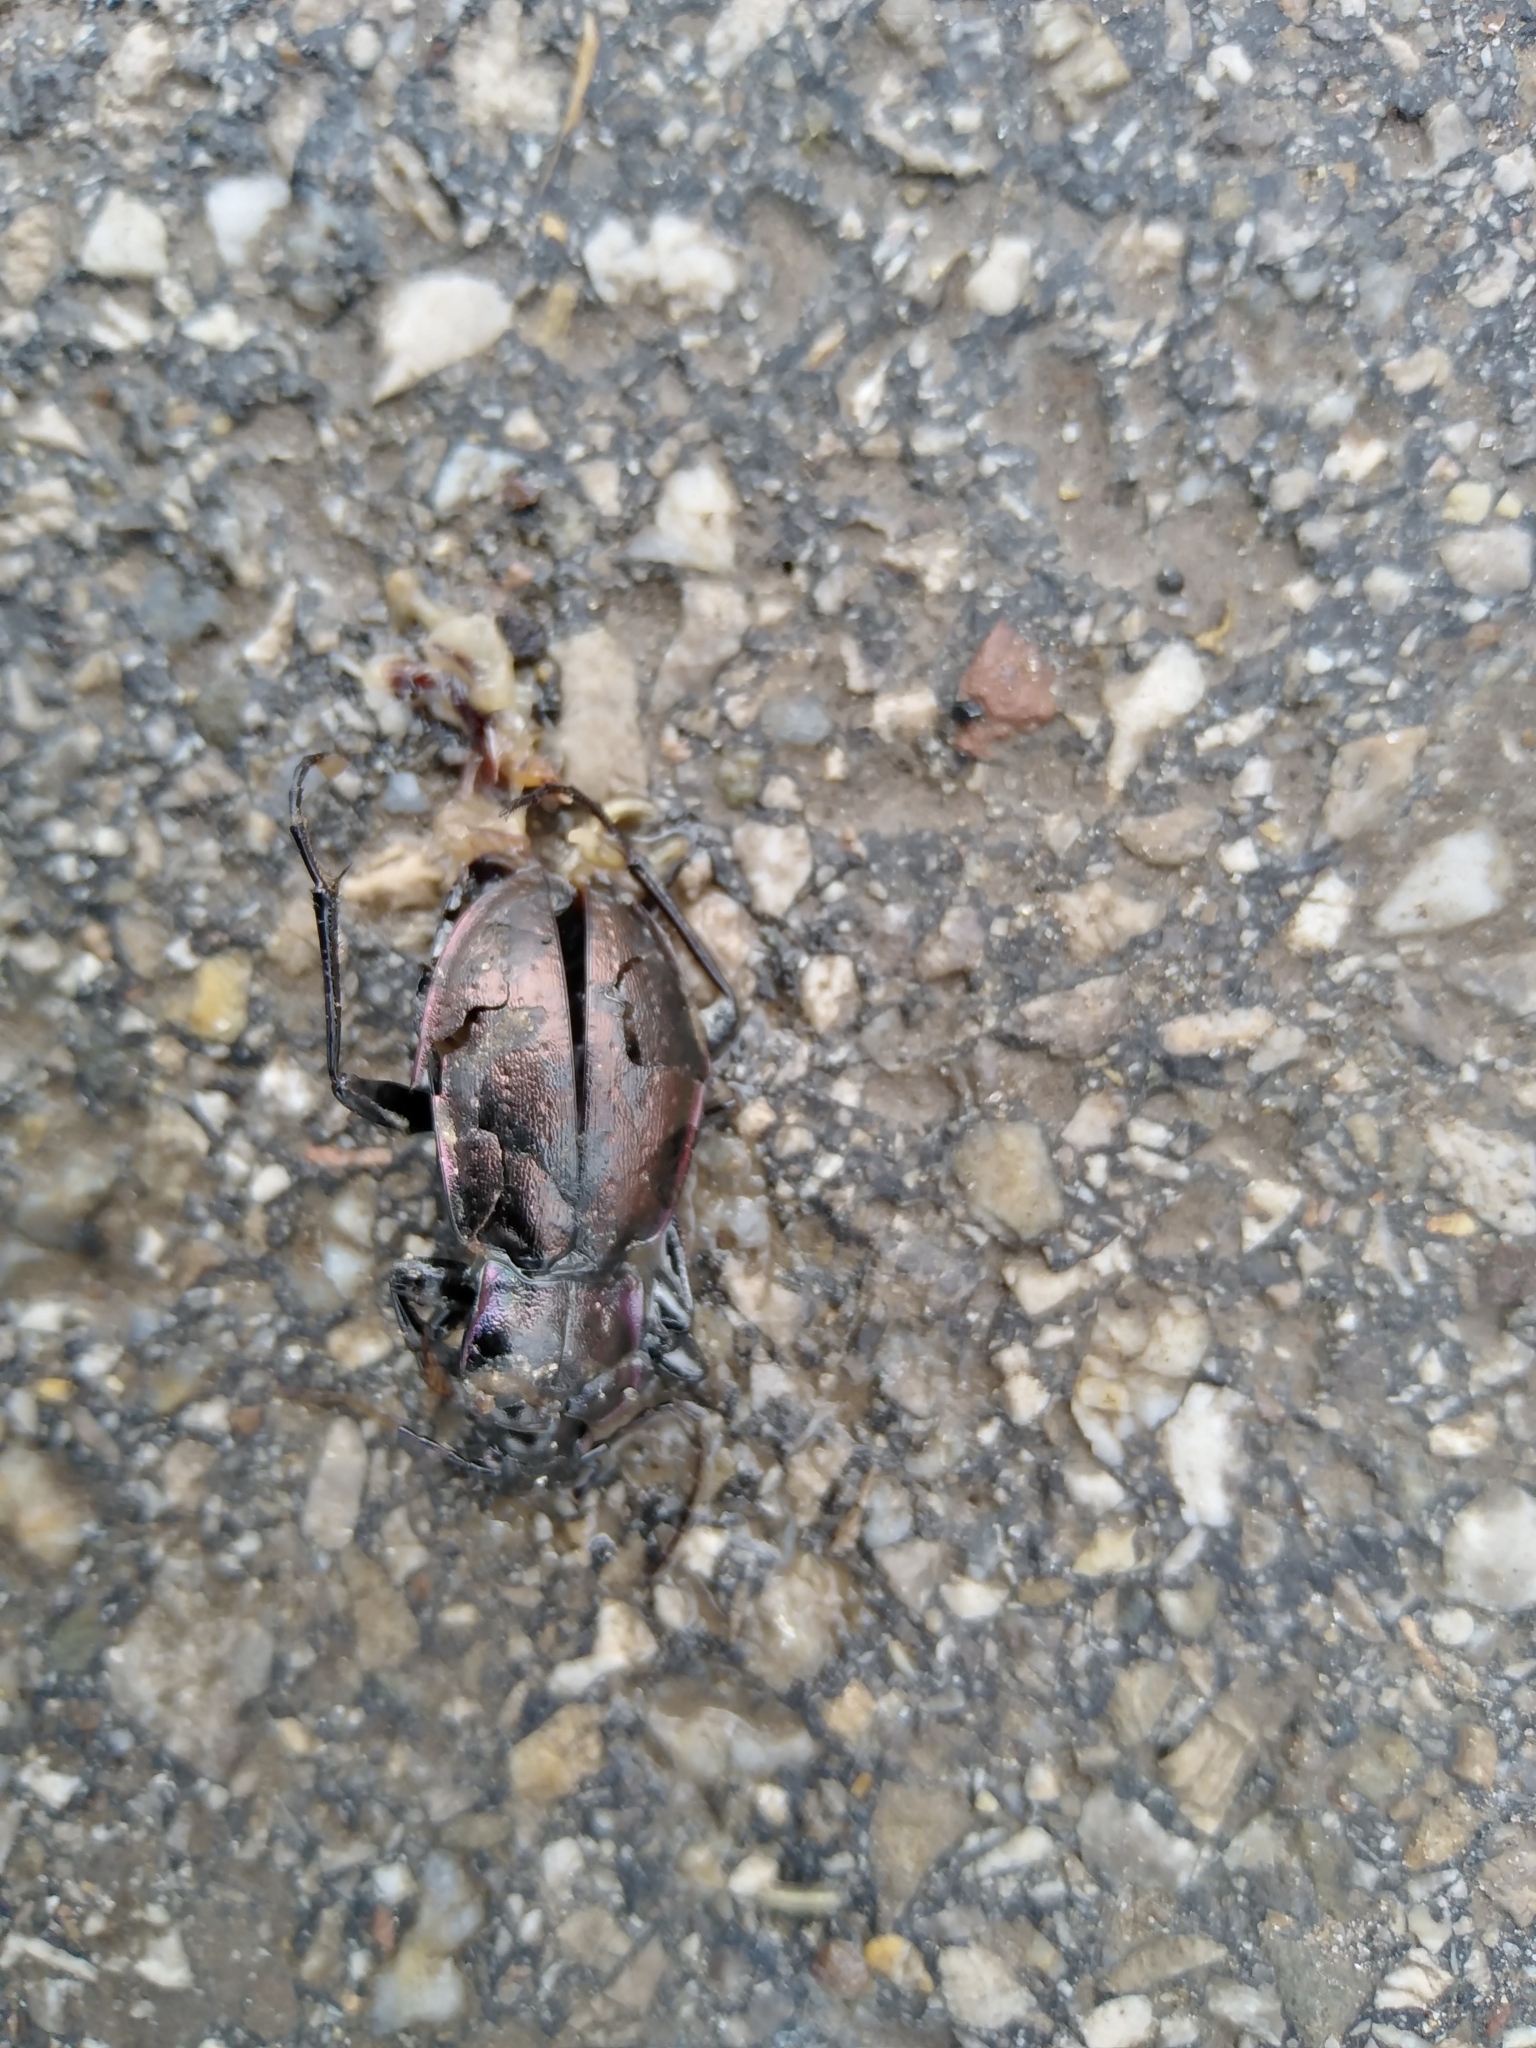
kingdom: Animalia
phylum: Arthropoda
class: Insecta
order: Coleoptera
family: Carabidae
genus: Carabus
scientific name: Carabus nemoralis
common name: European ground beetle
